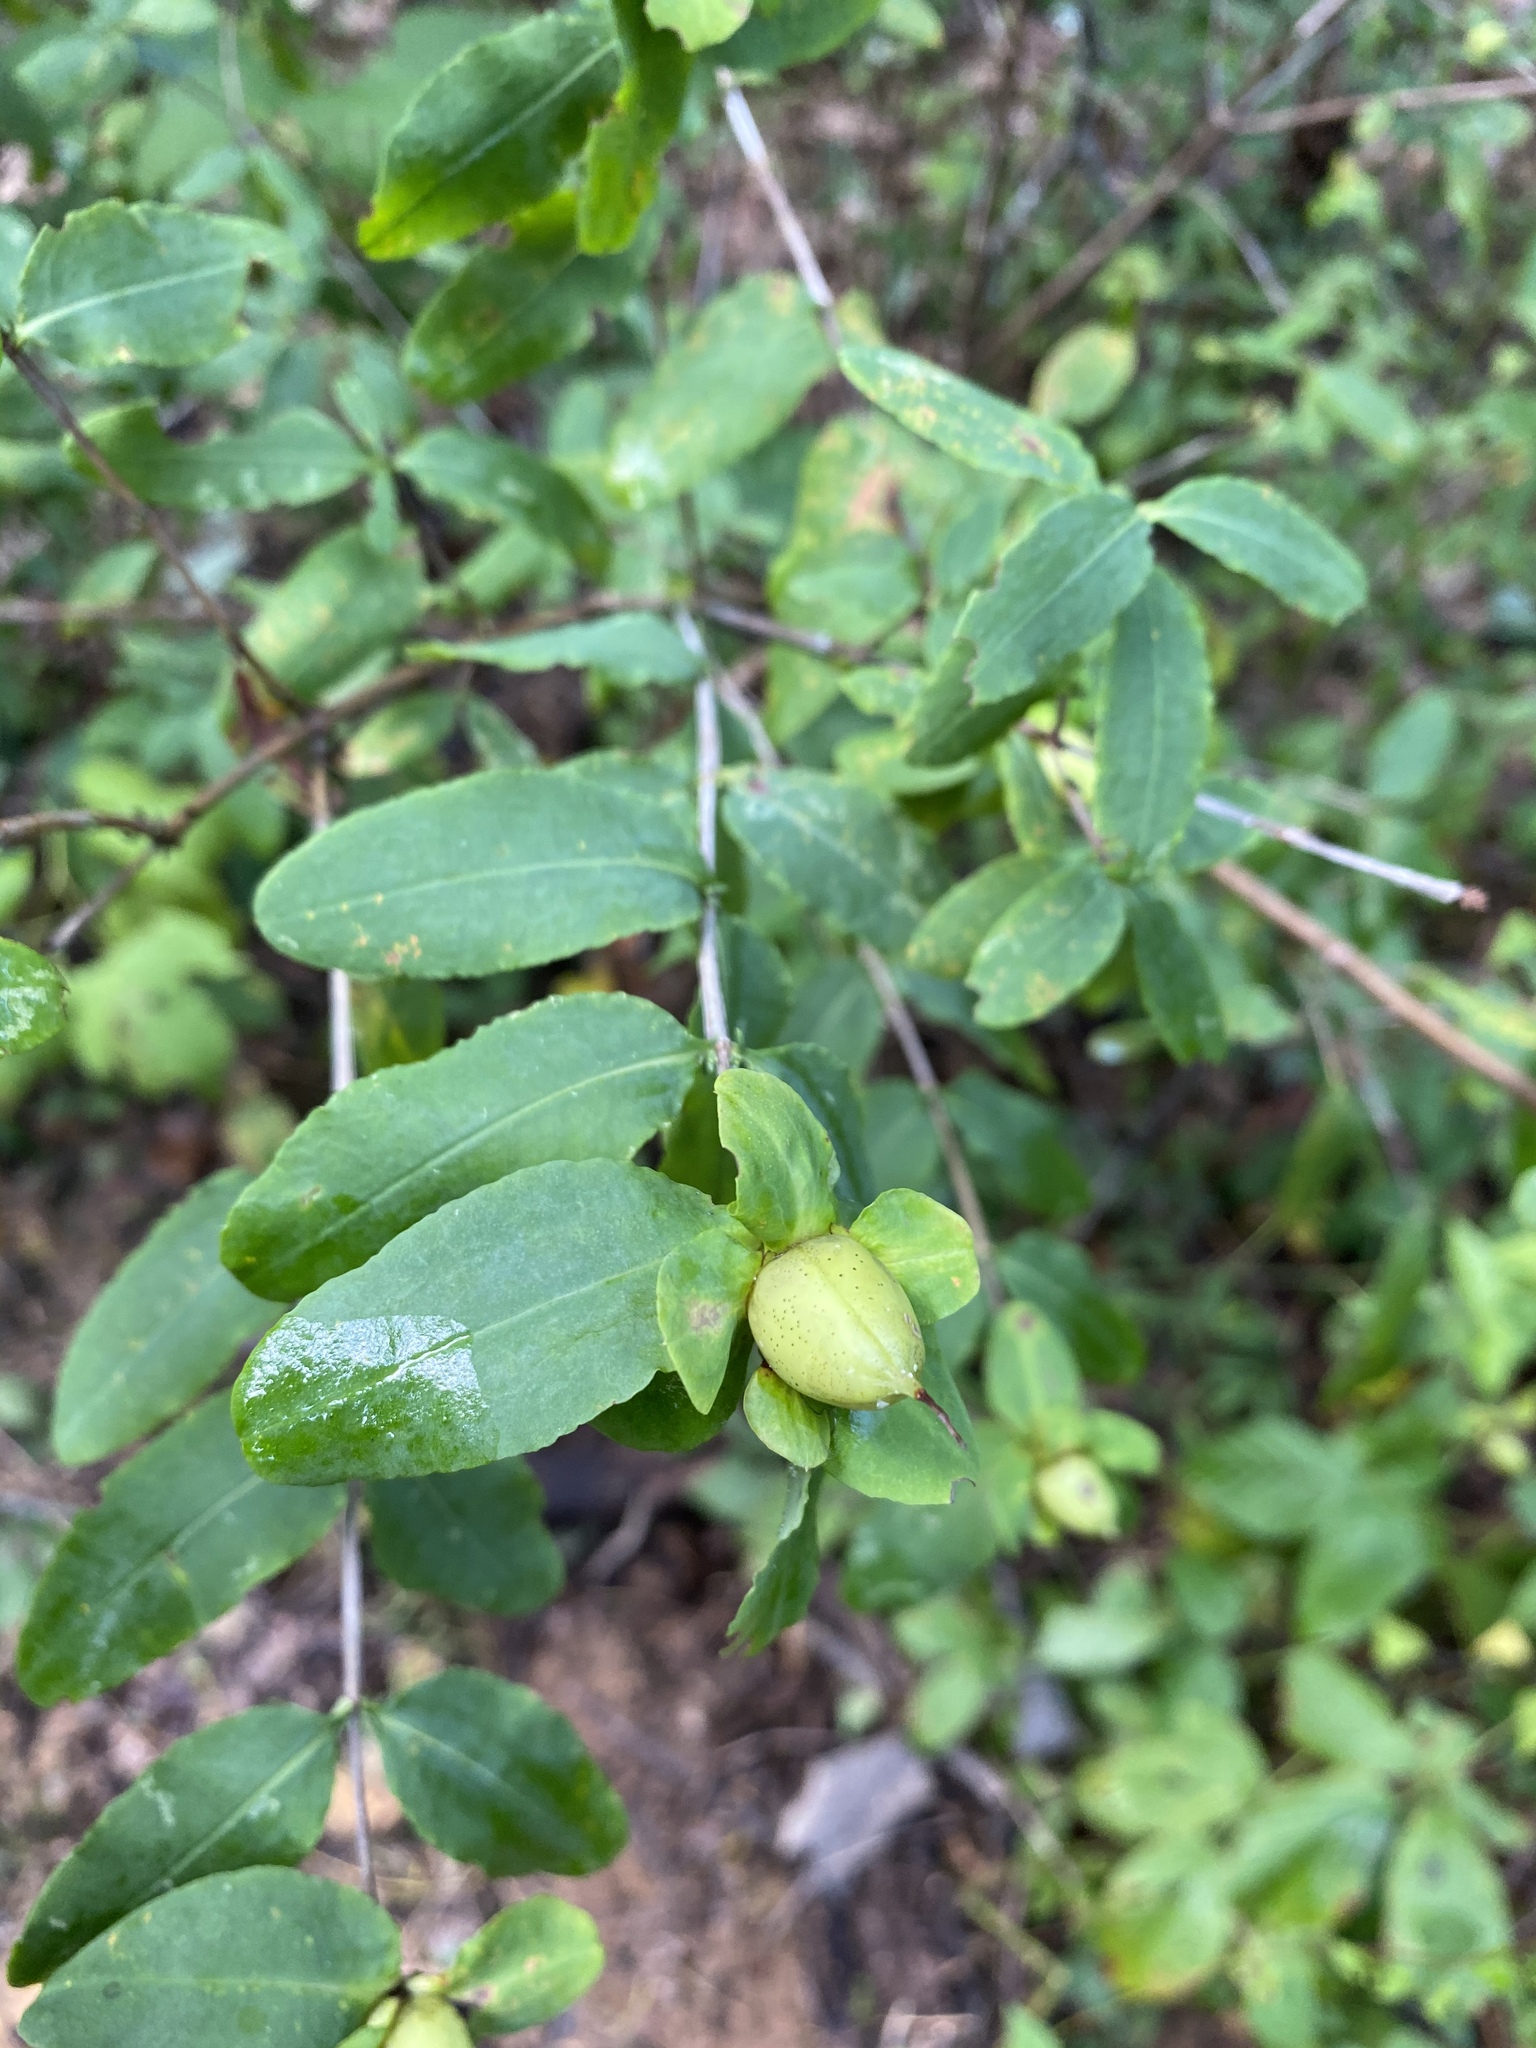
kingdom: Plantae
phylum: Tracheophyta
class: Magnoliopsida
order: Malpighiales
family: Hypericaceae
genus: Hypericum
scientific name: Hypericum frondosum
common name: Golden st. john's-wort
